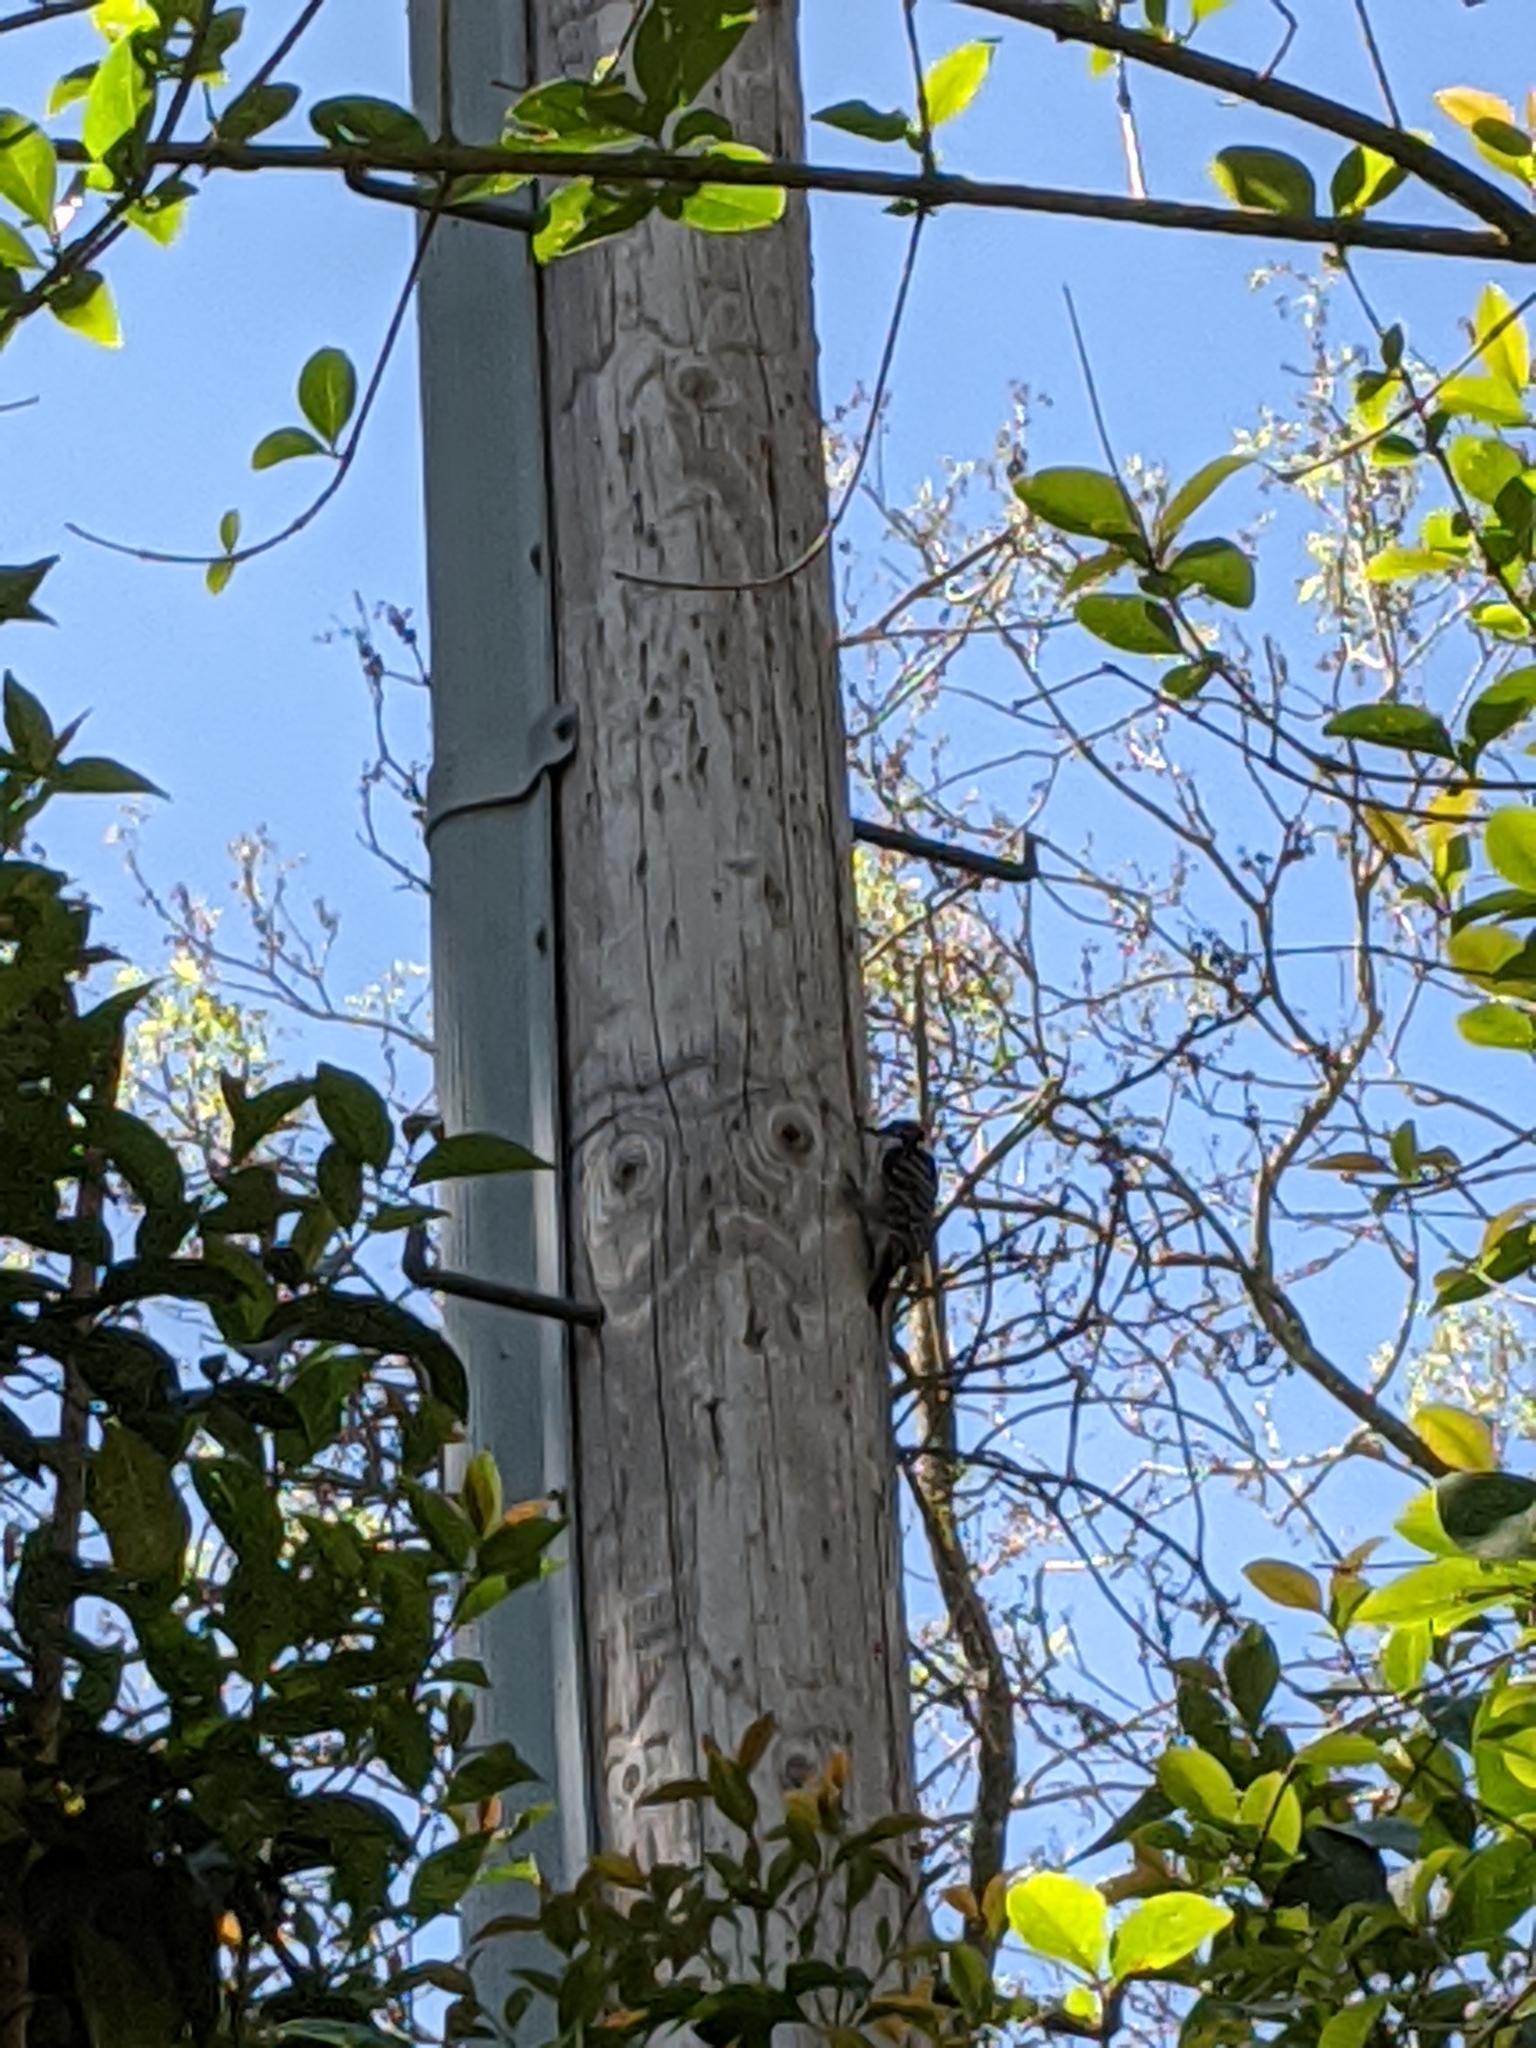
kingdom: Animalia
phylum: Chordata
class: Aves
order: Piciformes
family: Picidae
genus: Dryobates
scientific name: Dryobates pubescens
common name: Downy woodpecker
